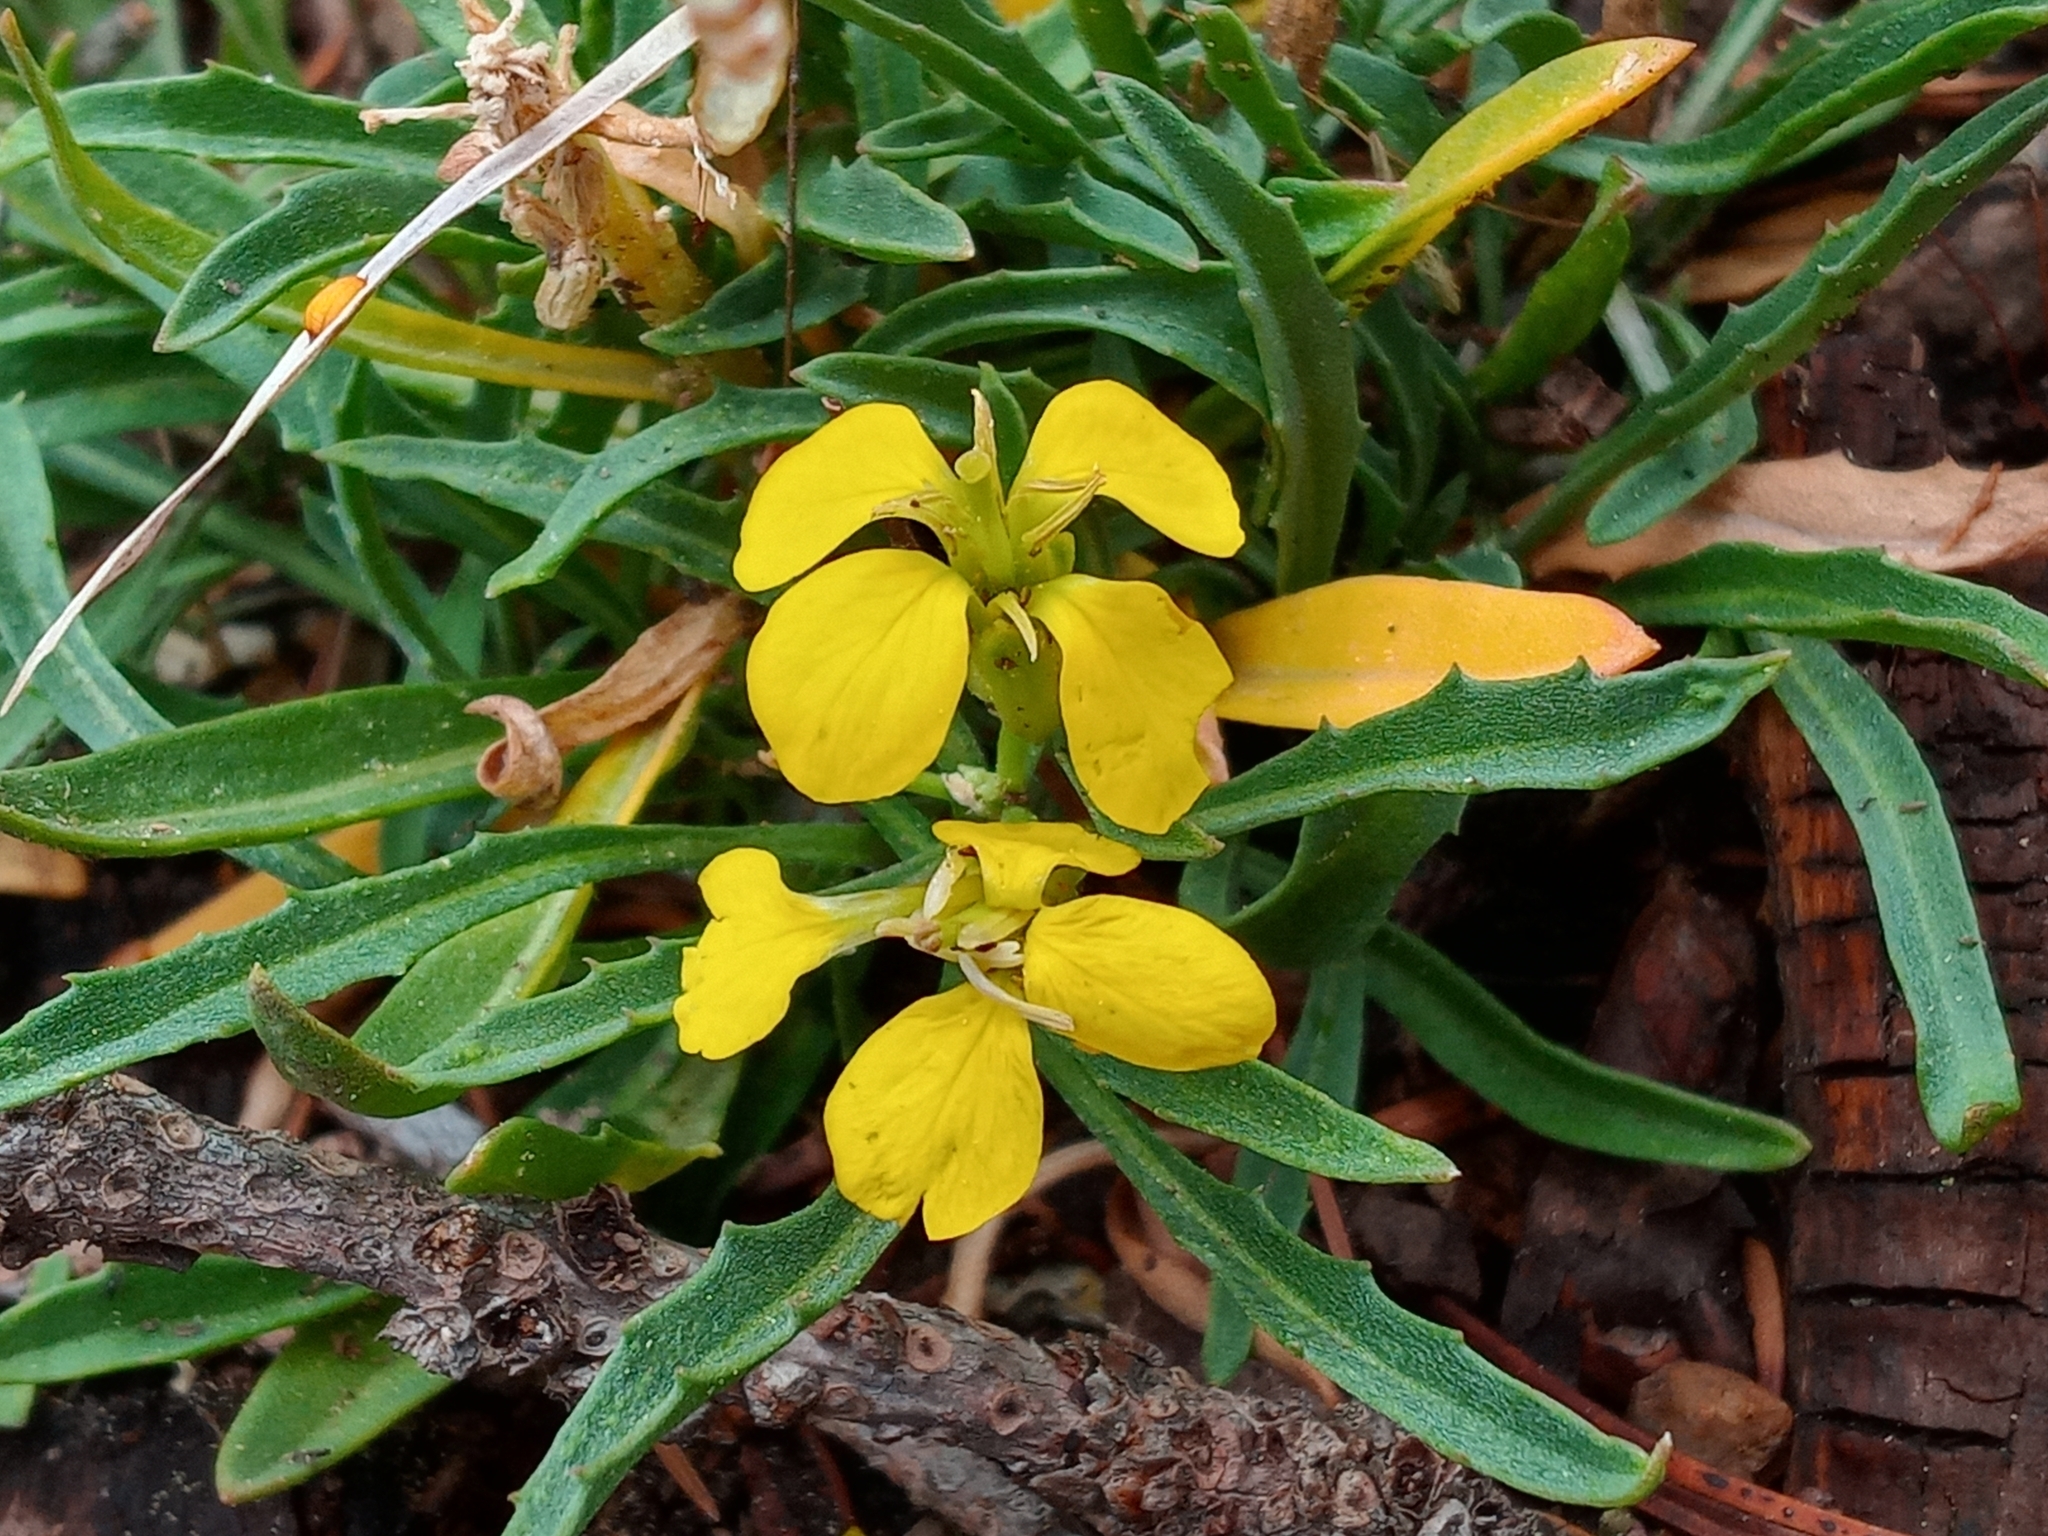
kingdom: Plantae
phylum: Tracheophyta
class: Magnoliopsida
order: Brassicales
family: Brassicaceae
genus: Erysimum
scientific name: Erysimum perenne
